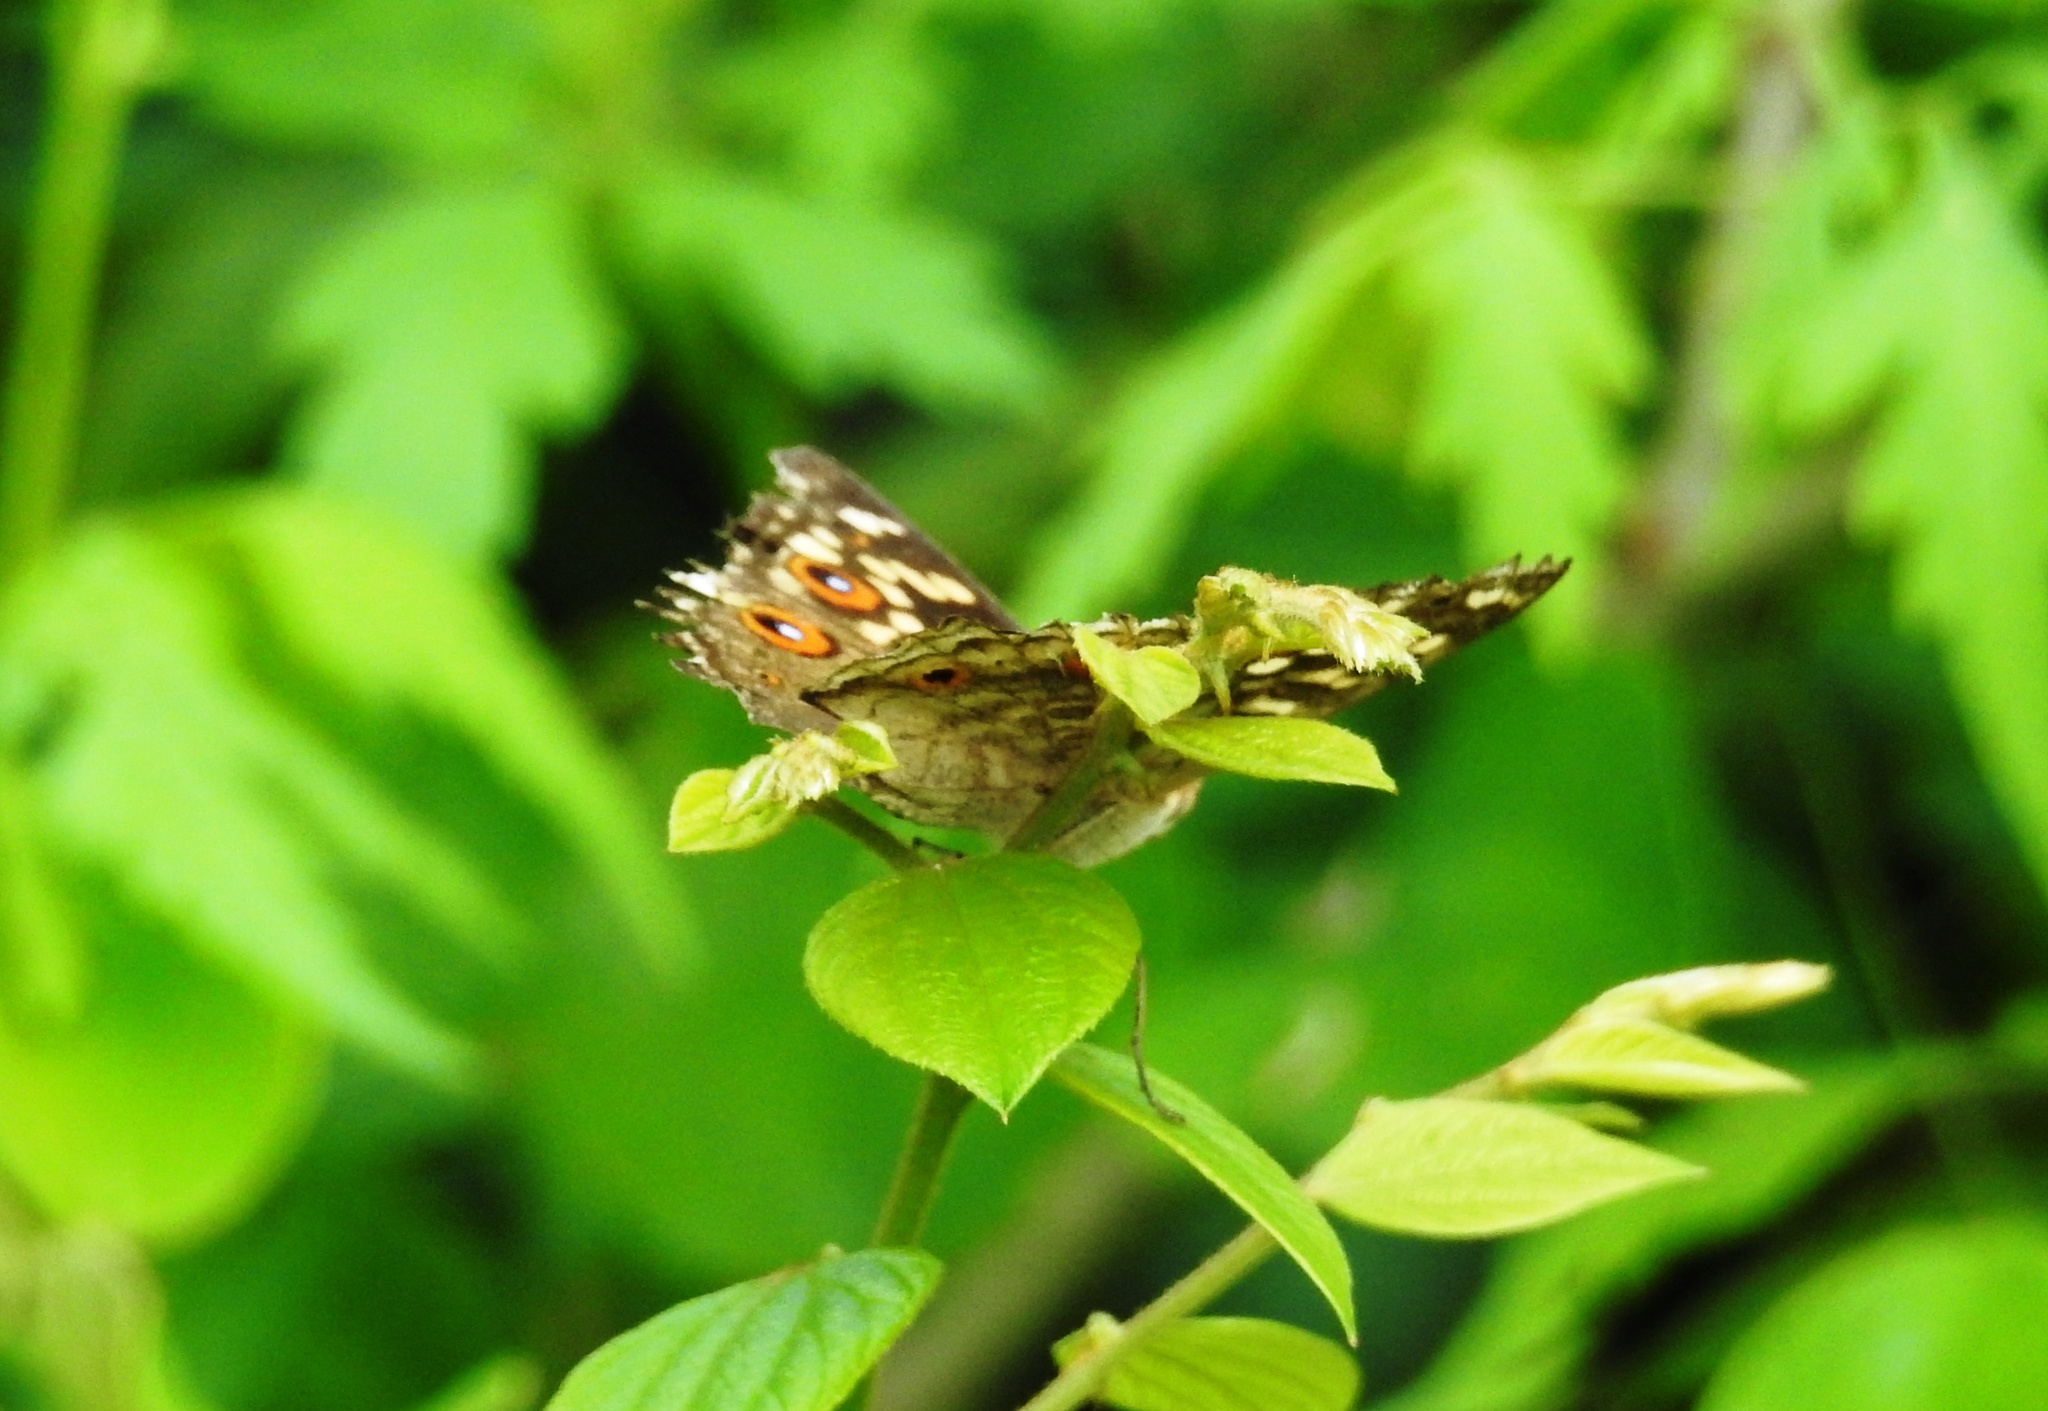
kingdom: Animalia
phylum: Arthropoda
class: Insecta
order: Lepidoptera
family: Nymphalidae
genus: Junonia
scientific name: Junonia lemonias
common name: Lemon pansy
